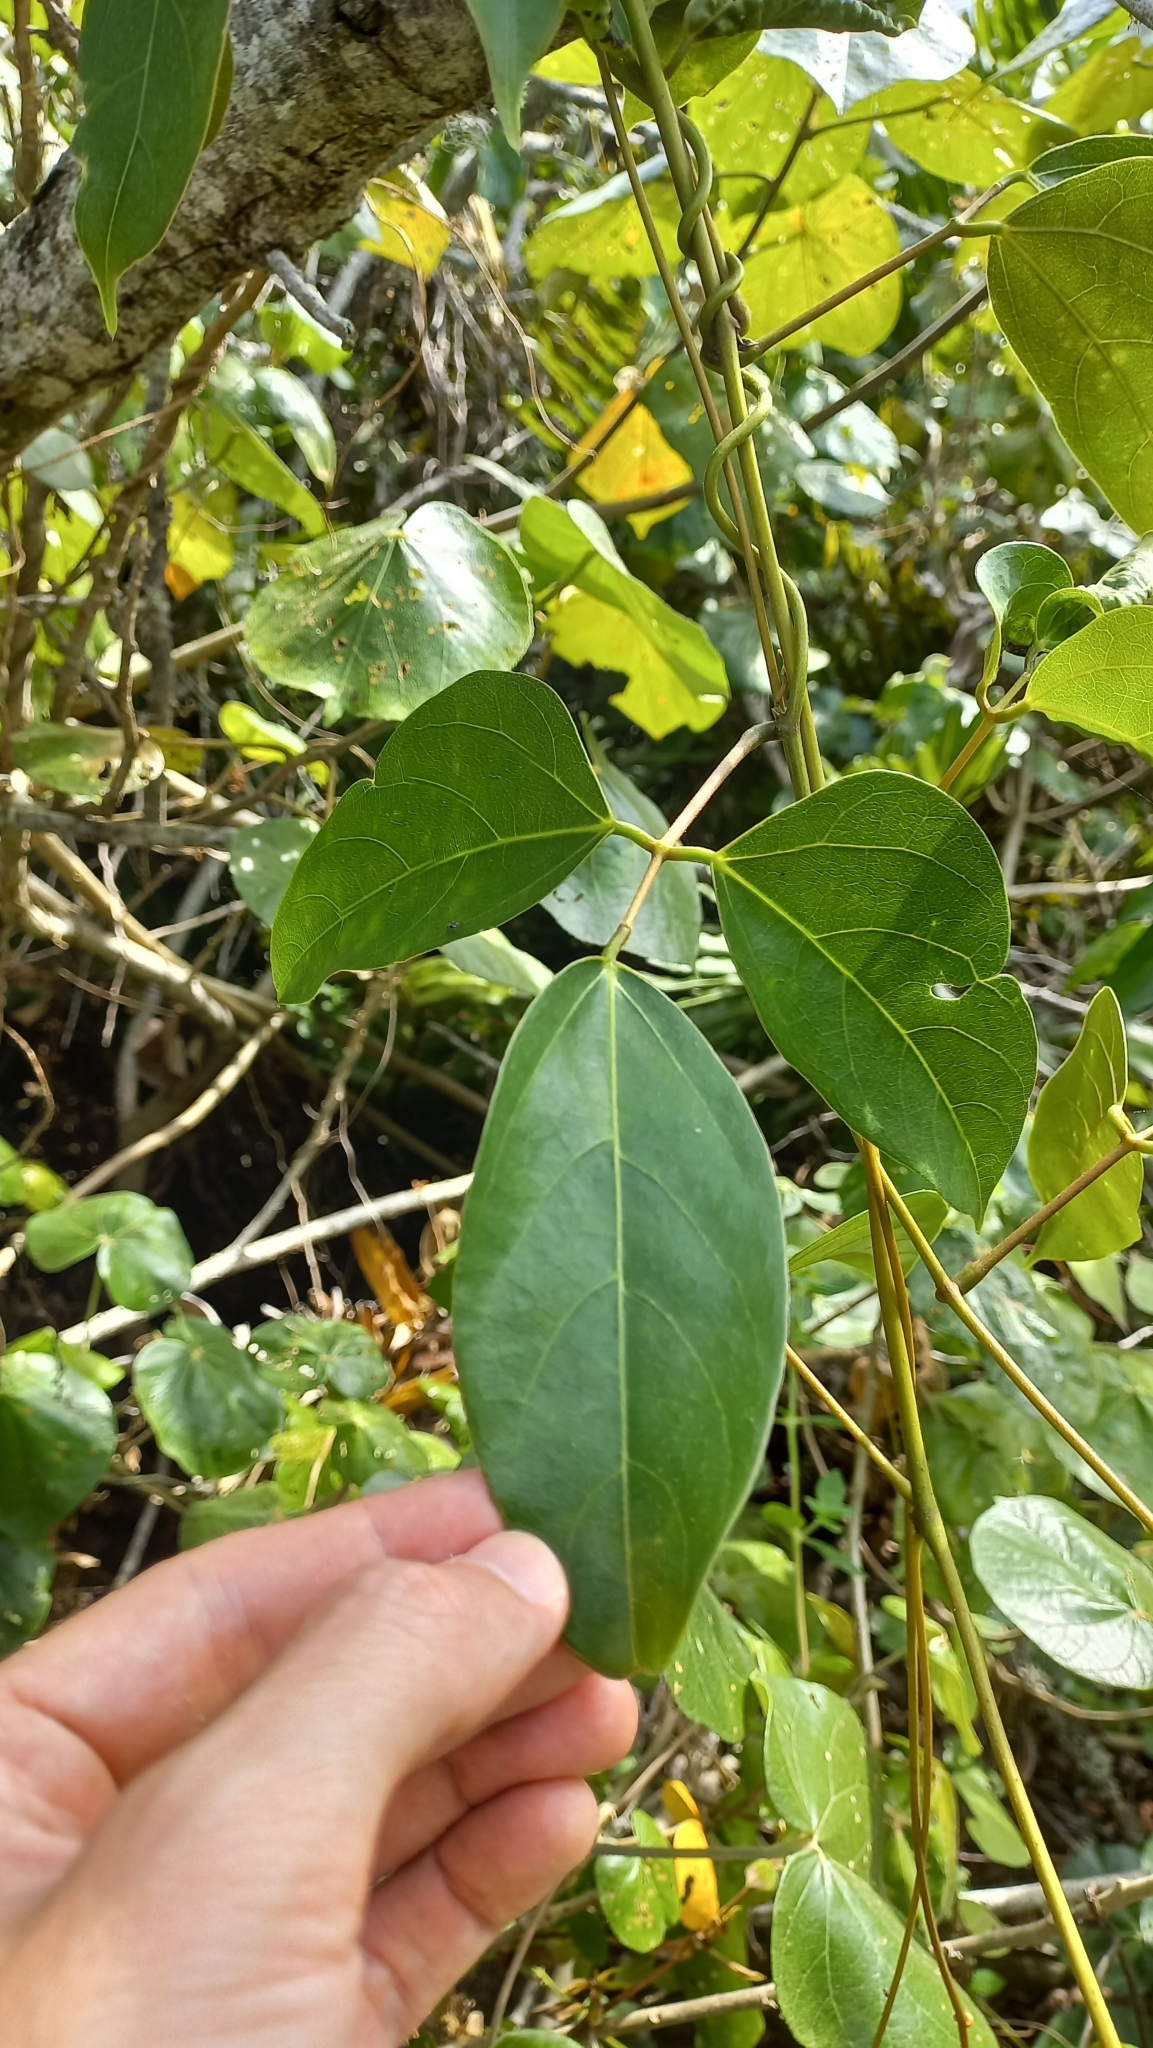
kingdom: Plantae
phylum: Tracheophyta
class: Magnoliopsida
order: Fabales
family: Fabaceae
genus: Mucuna
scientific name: Mucuna urens
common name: Red hamburger bean
